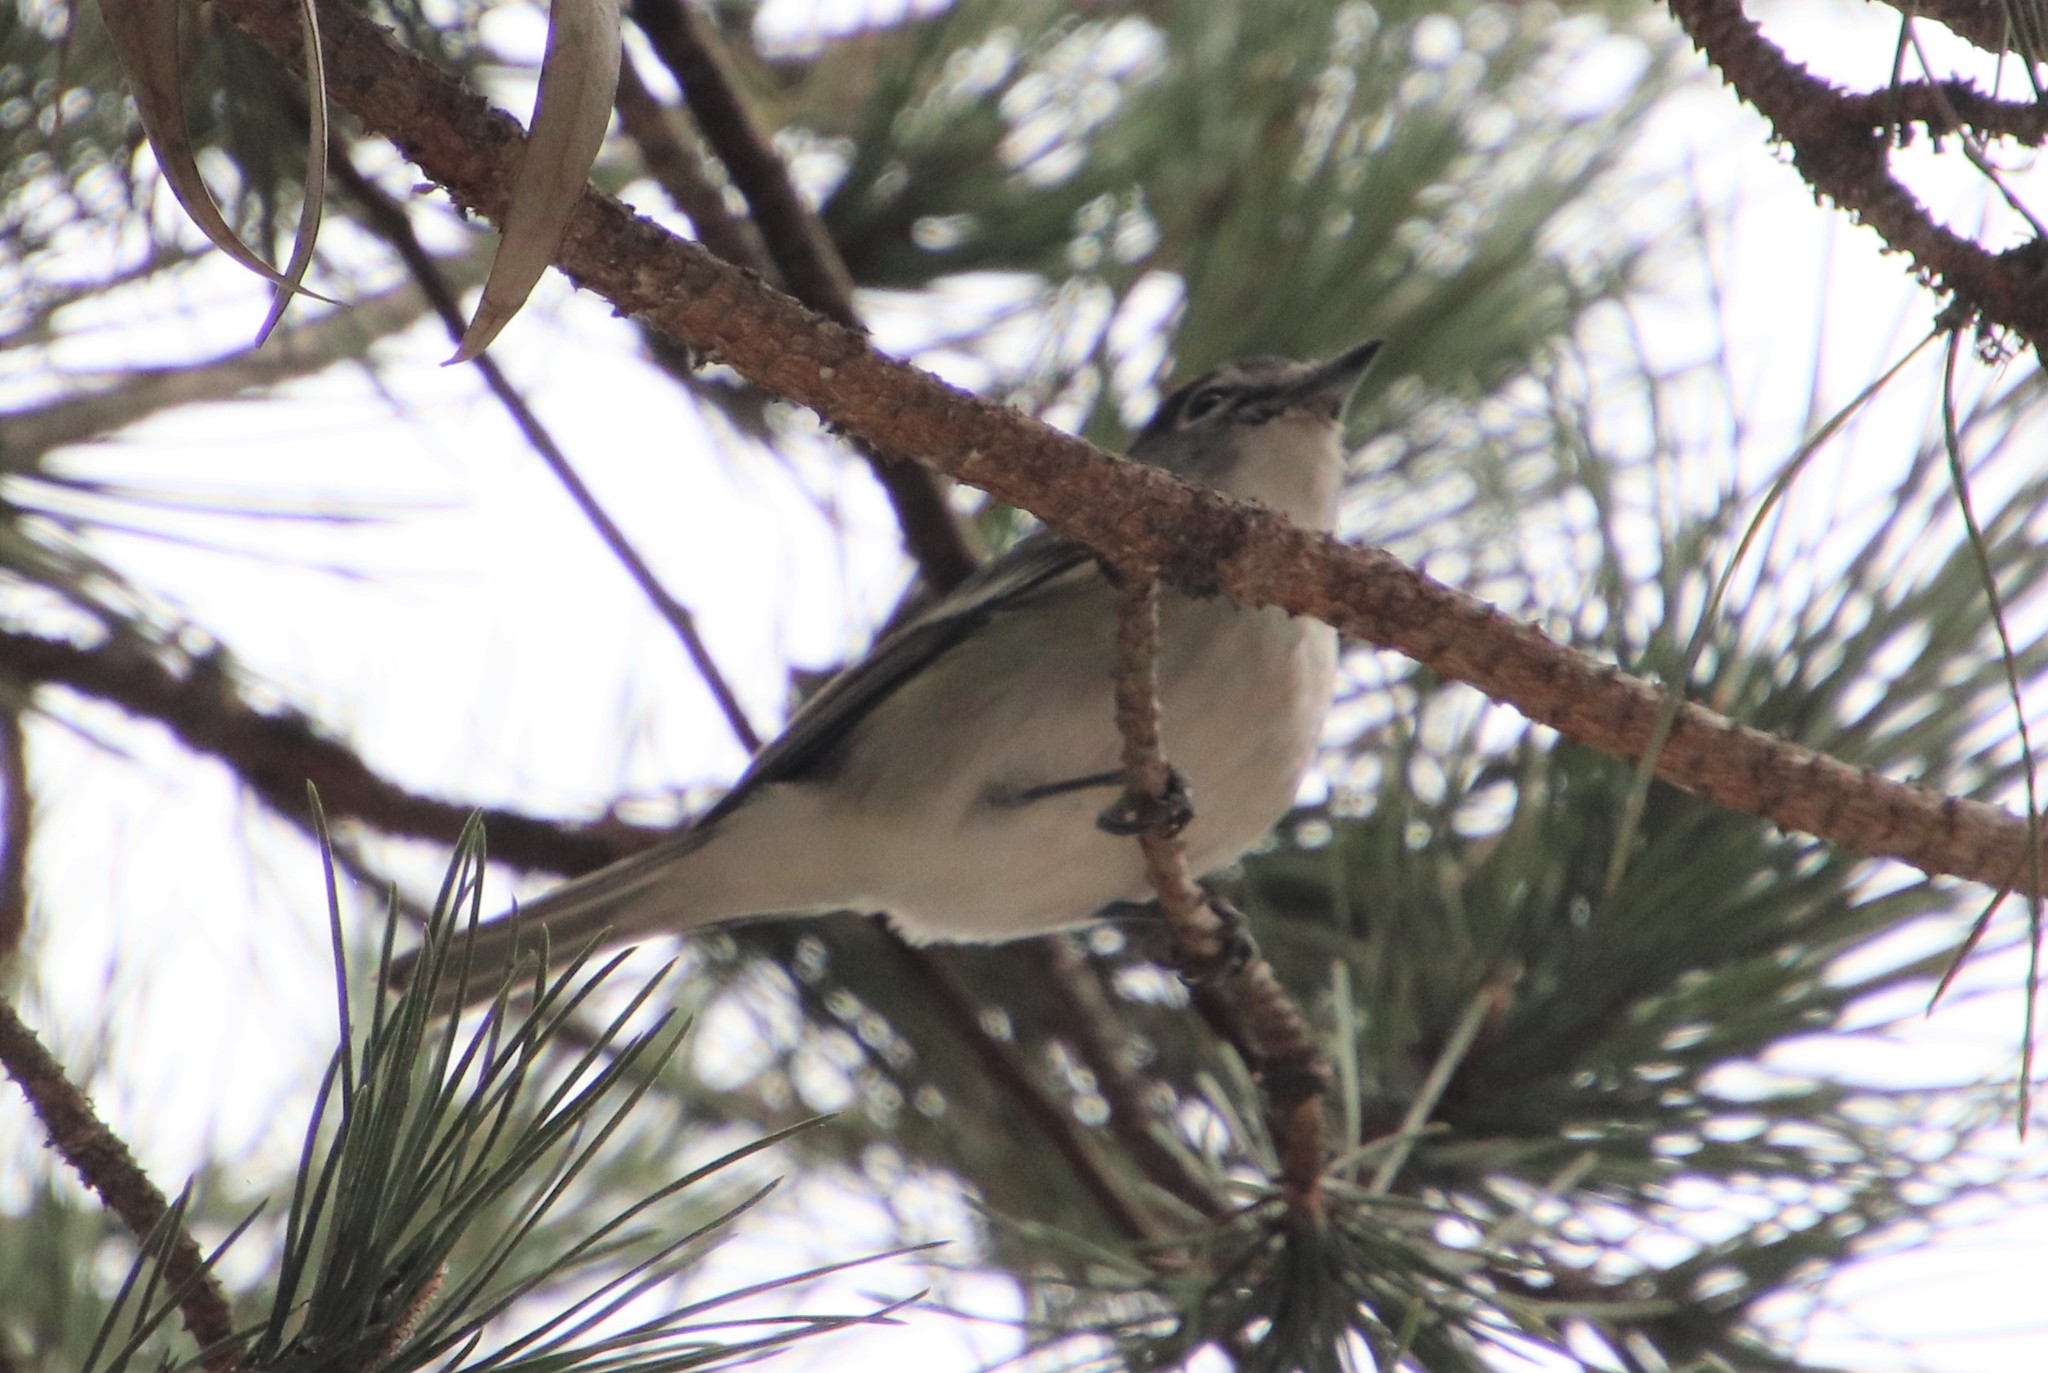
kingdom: Animalia
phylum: Chordata
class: Aves
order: Passeriformes
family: Vireonidae
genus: Vireo
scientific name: Vireo plumbeus
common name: Plumbeous vireo
